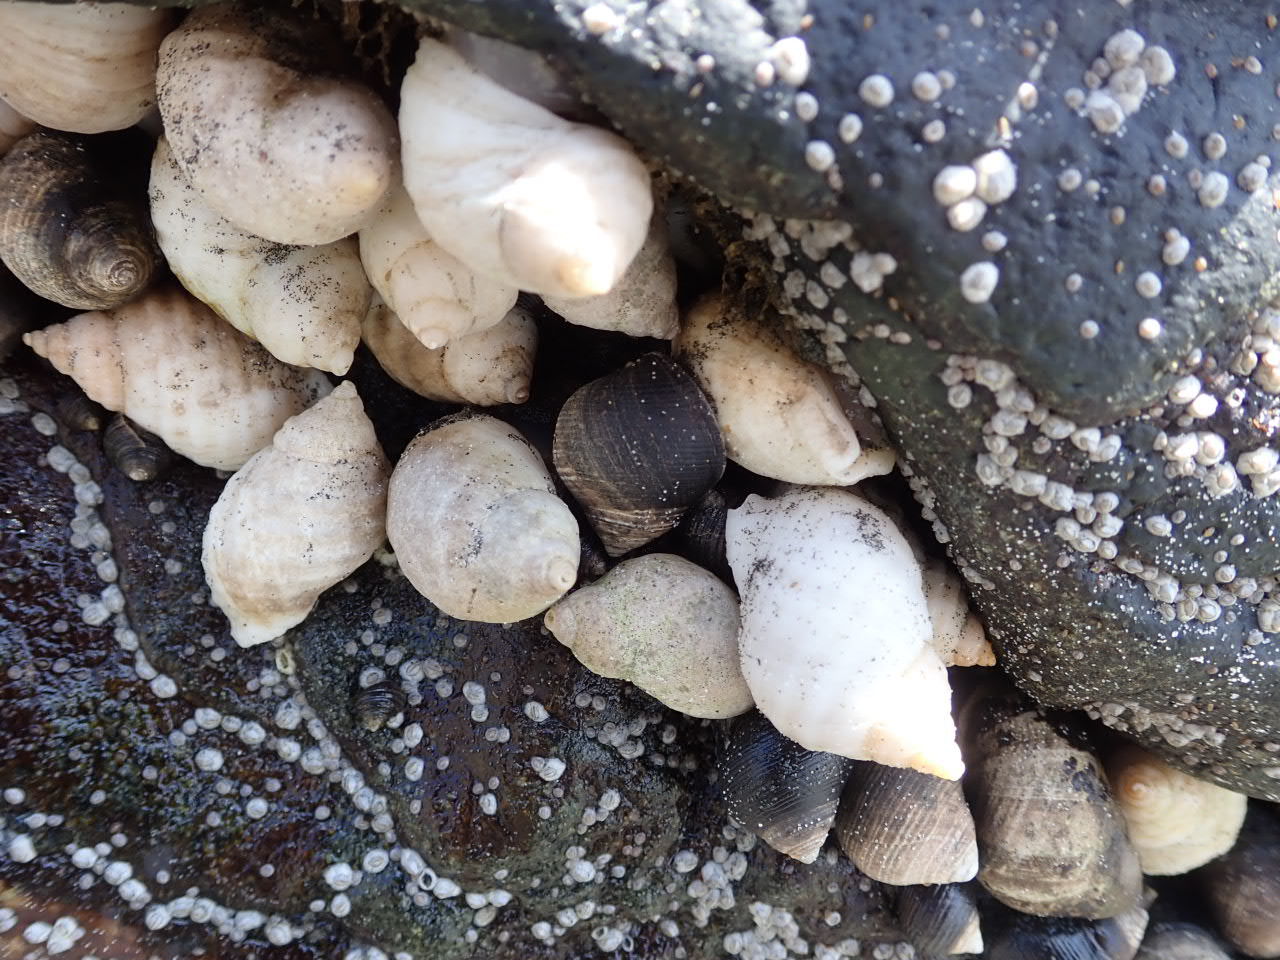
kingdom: Animalia
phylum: Mollusca
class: Gastropoda
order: Neogastropoda
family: Muricidae
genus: Nucella
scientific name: Nucella lapillus
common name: Dog whelk
